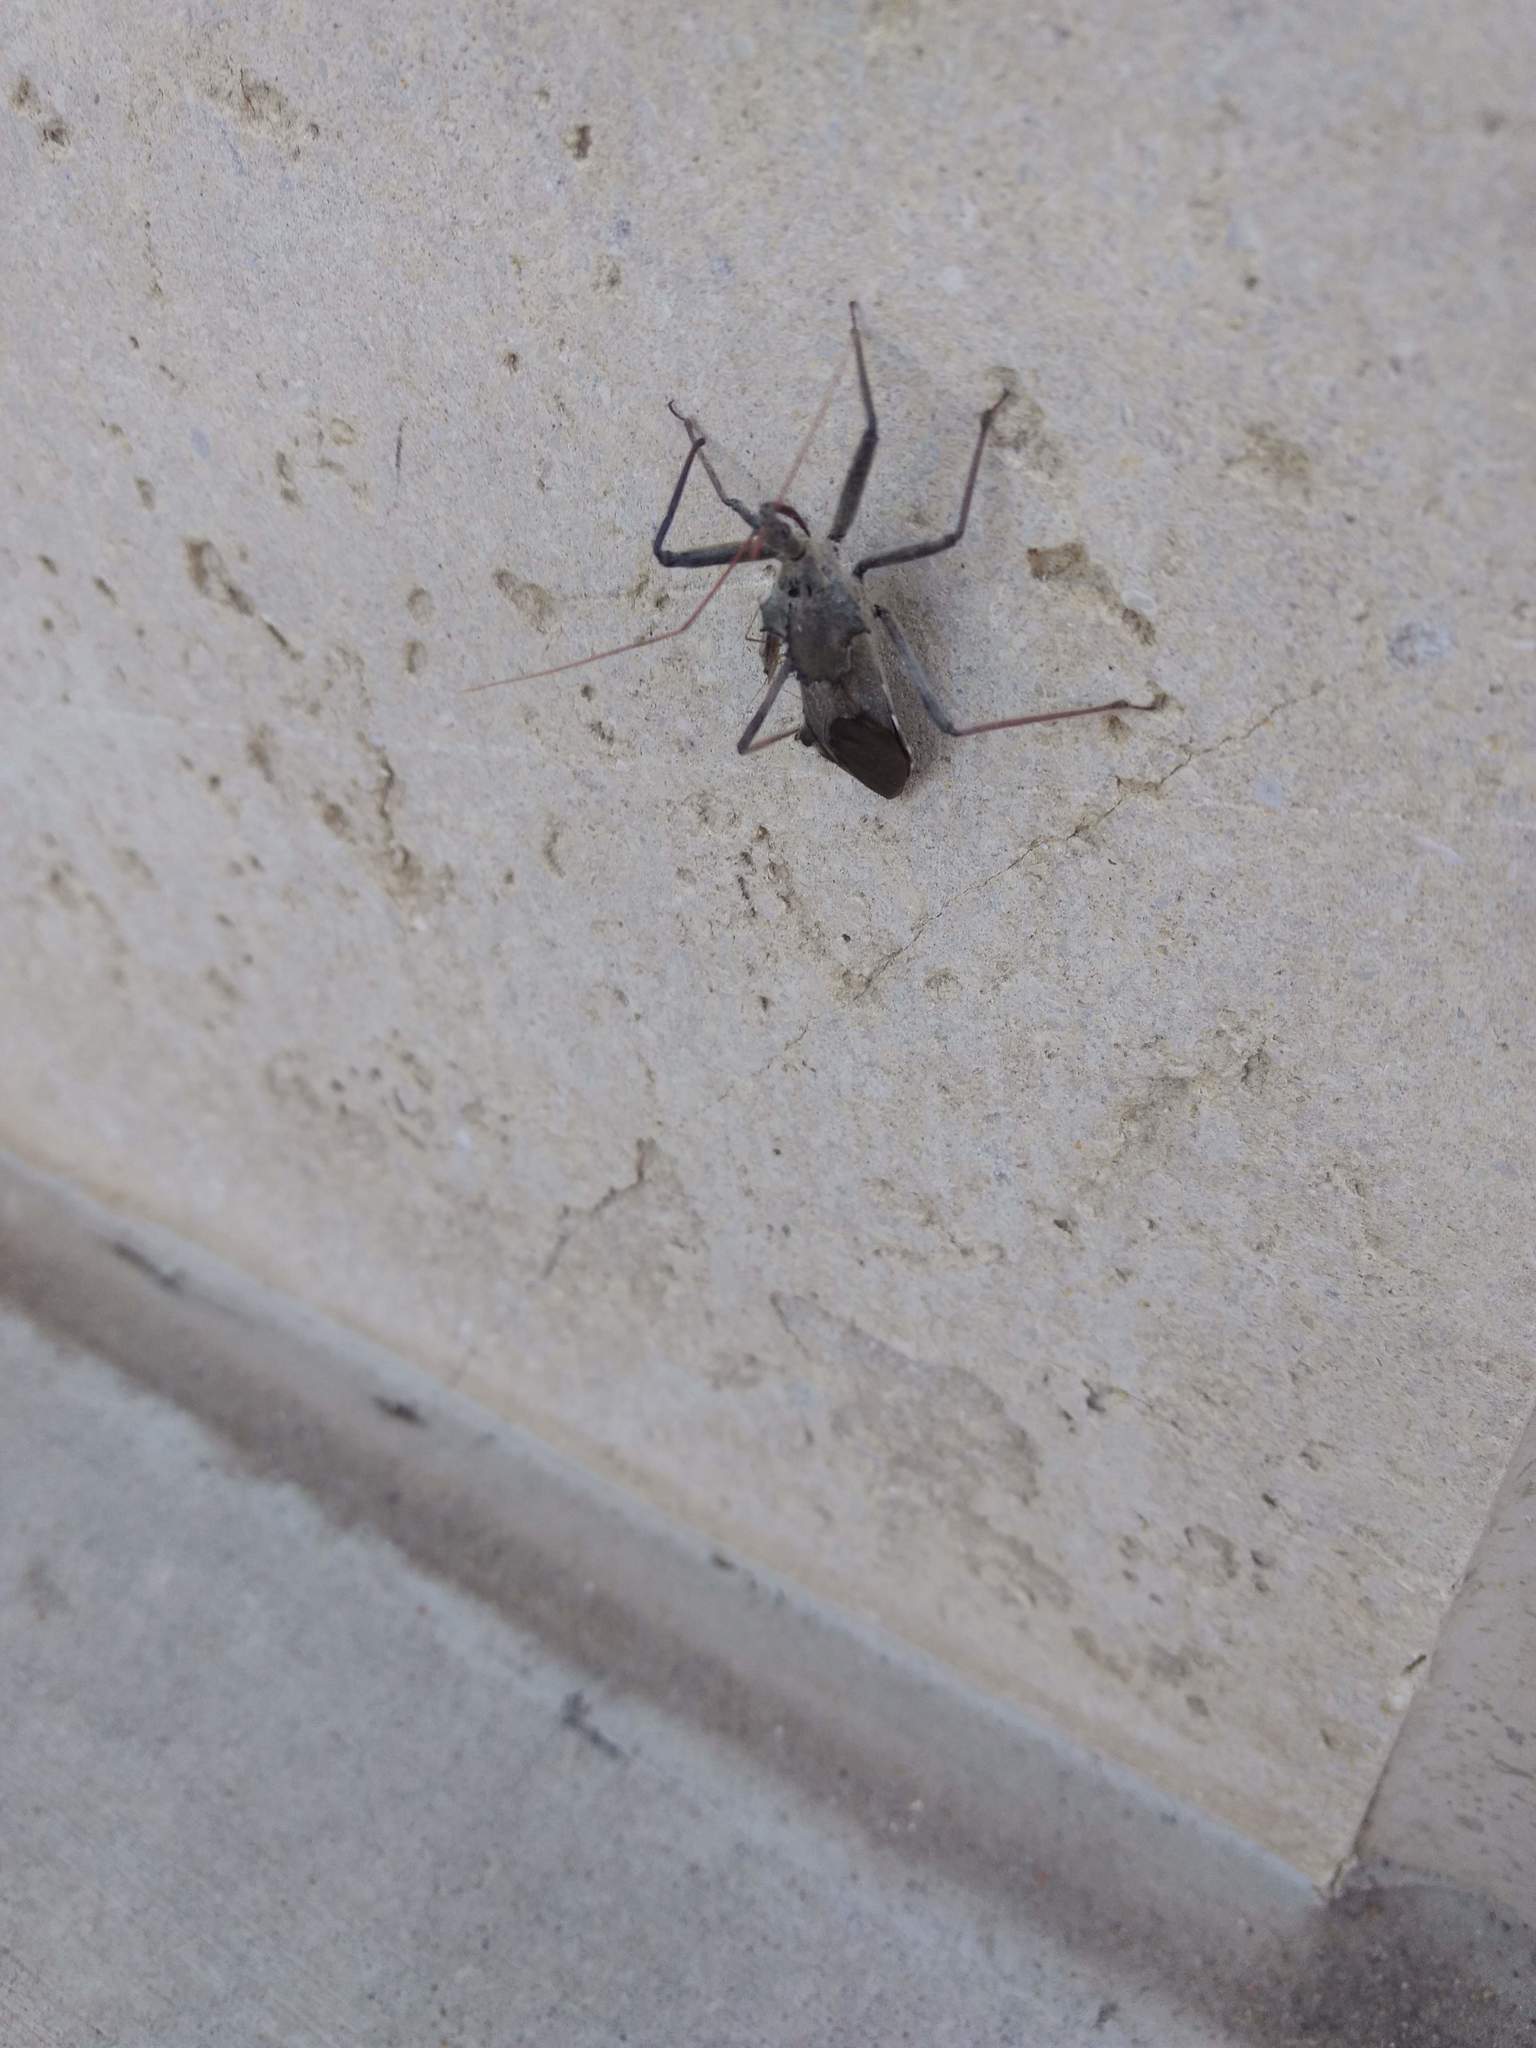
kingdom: Animalia
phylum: Arthropoda
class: Insecta
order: Hemiptera
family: Reduviidae
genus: Arilus
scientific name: Arilus cristatus
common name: North american wheel bug
